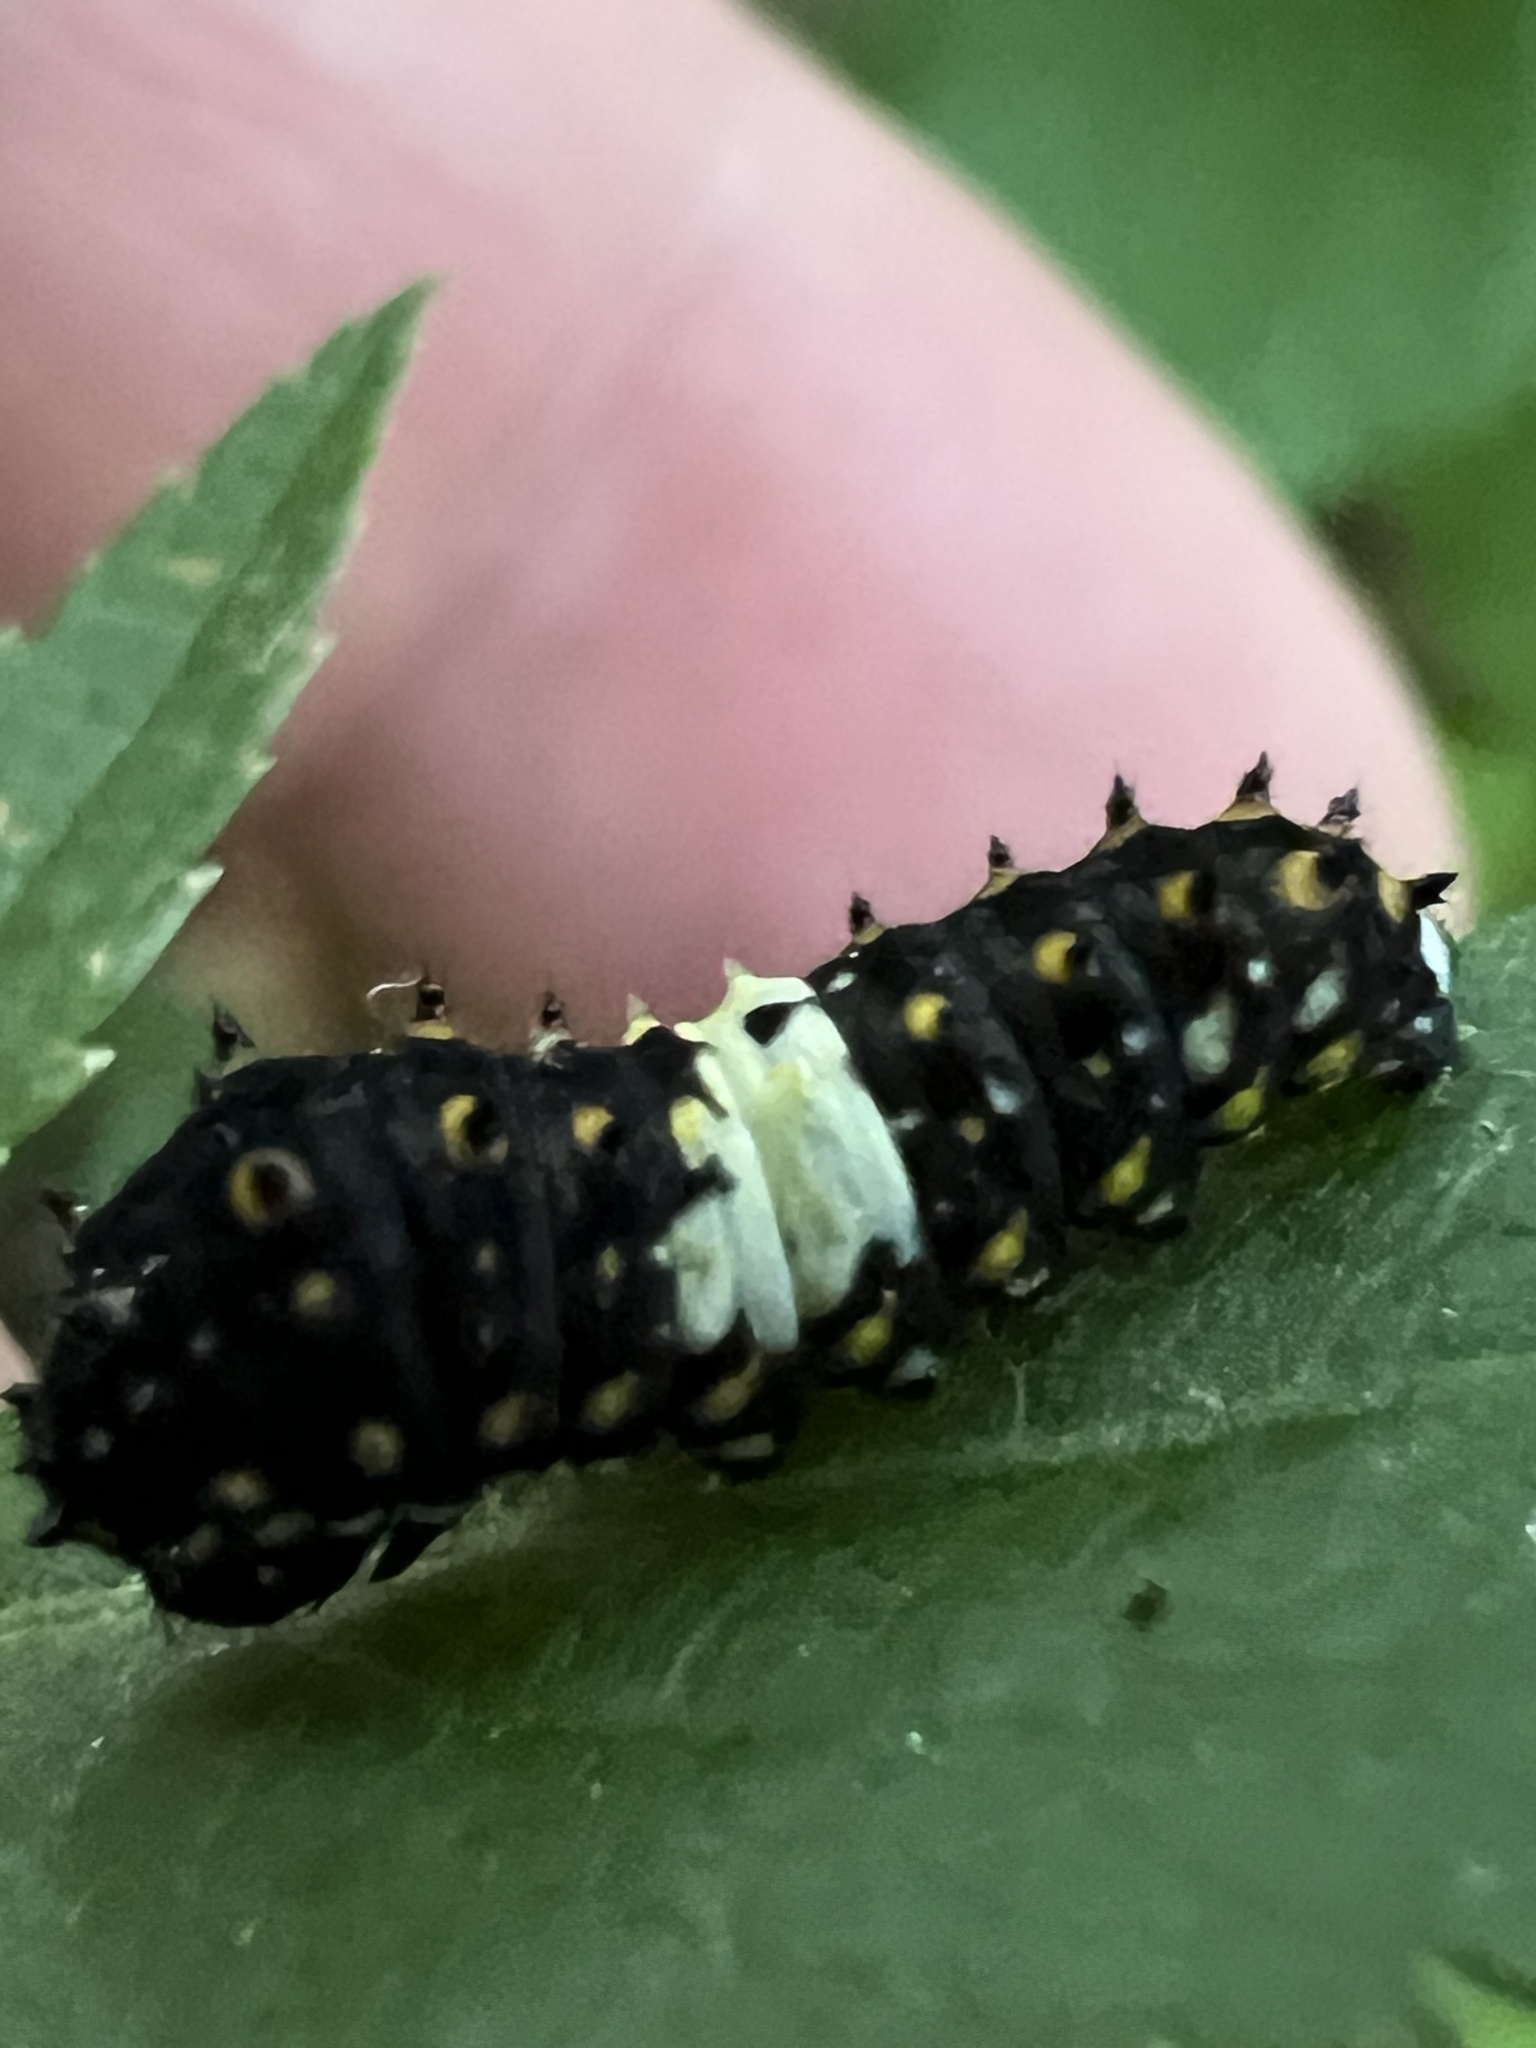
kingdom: Animalia
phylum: Arthropoda
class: Insecta
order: Lepidoptera
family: Papilionidae
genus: Papilio
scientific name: Papilio polyxenes
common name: Black swallowtail
